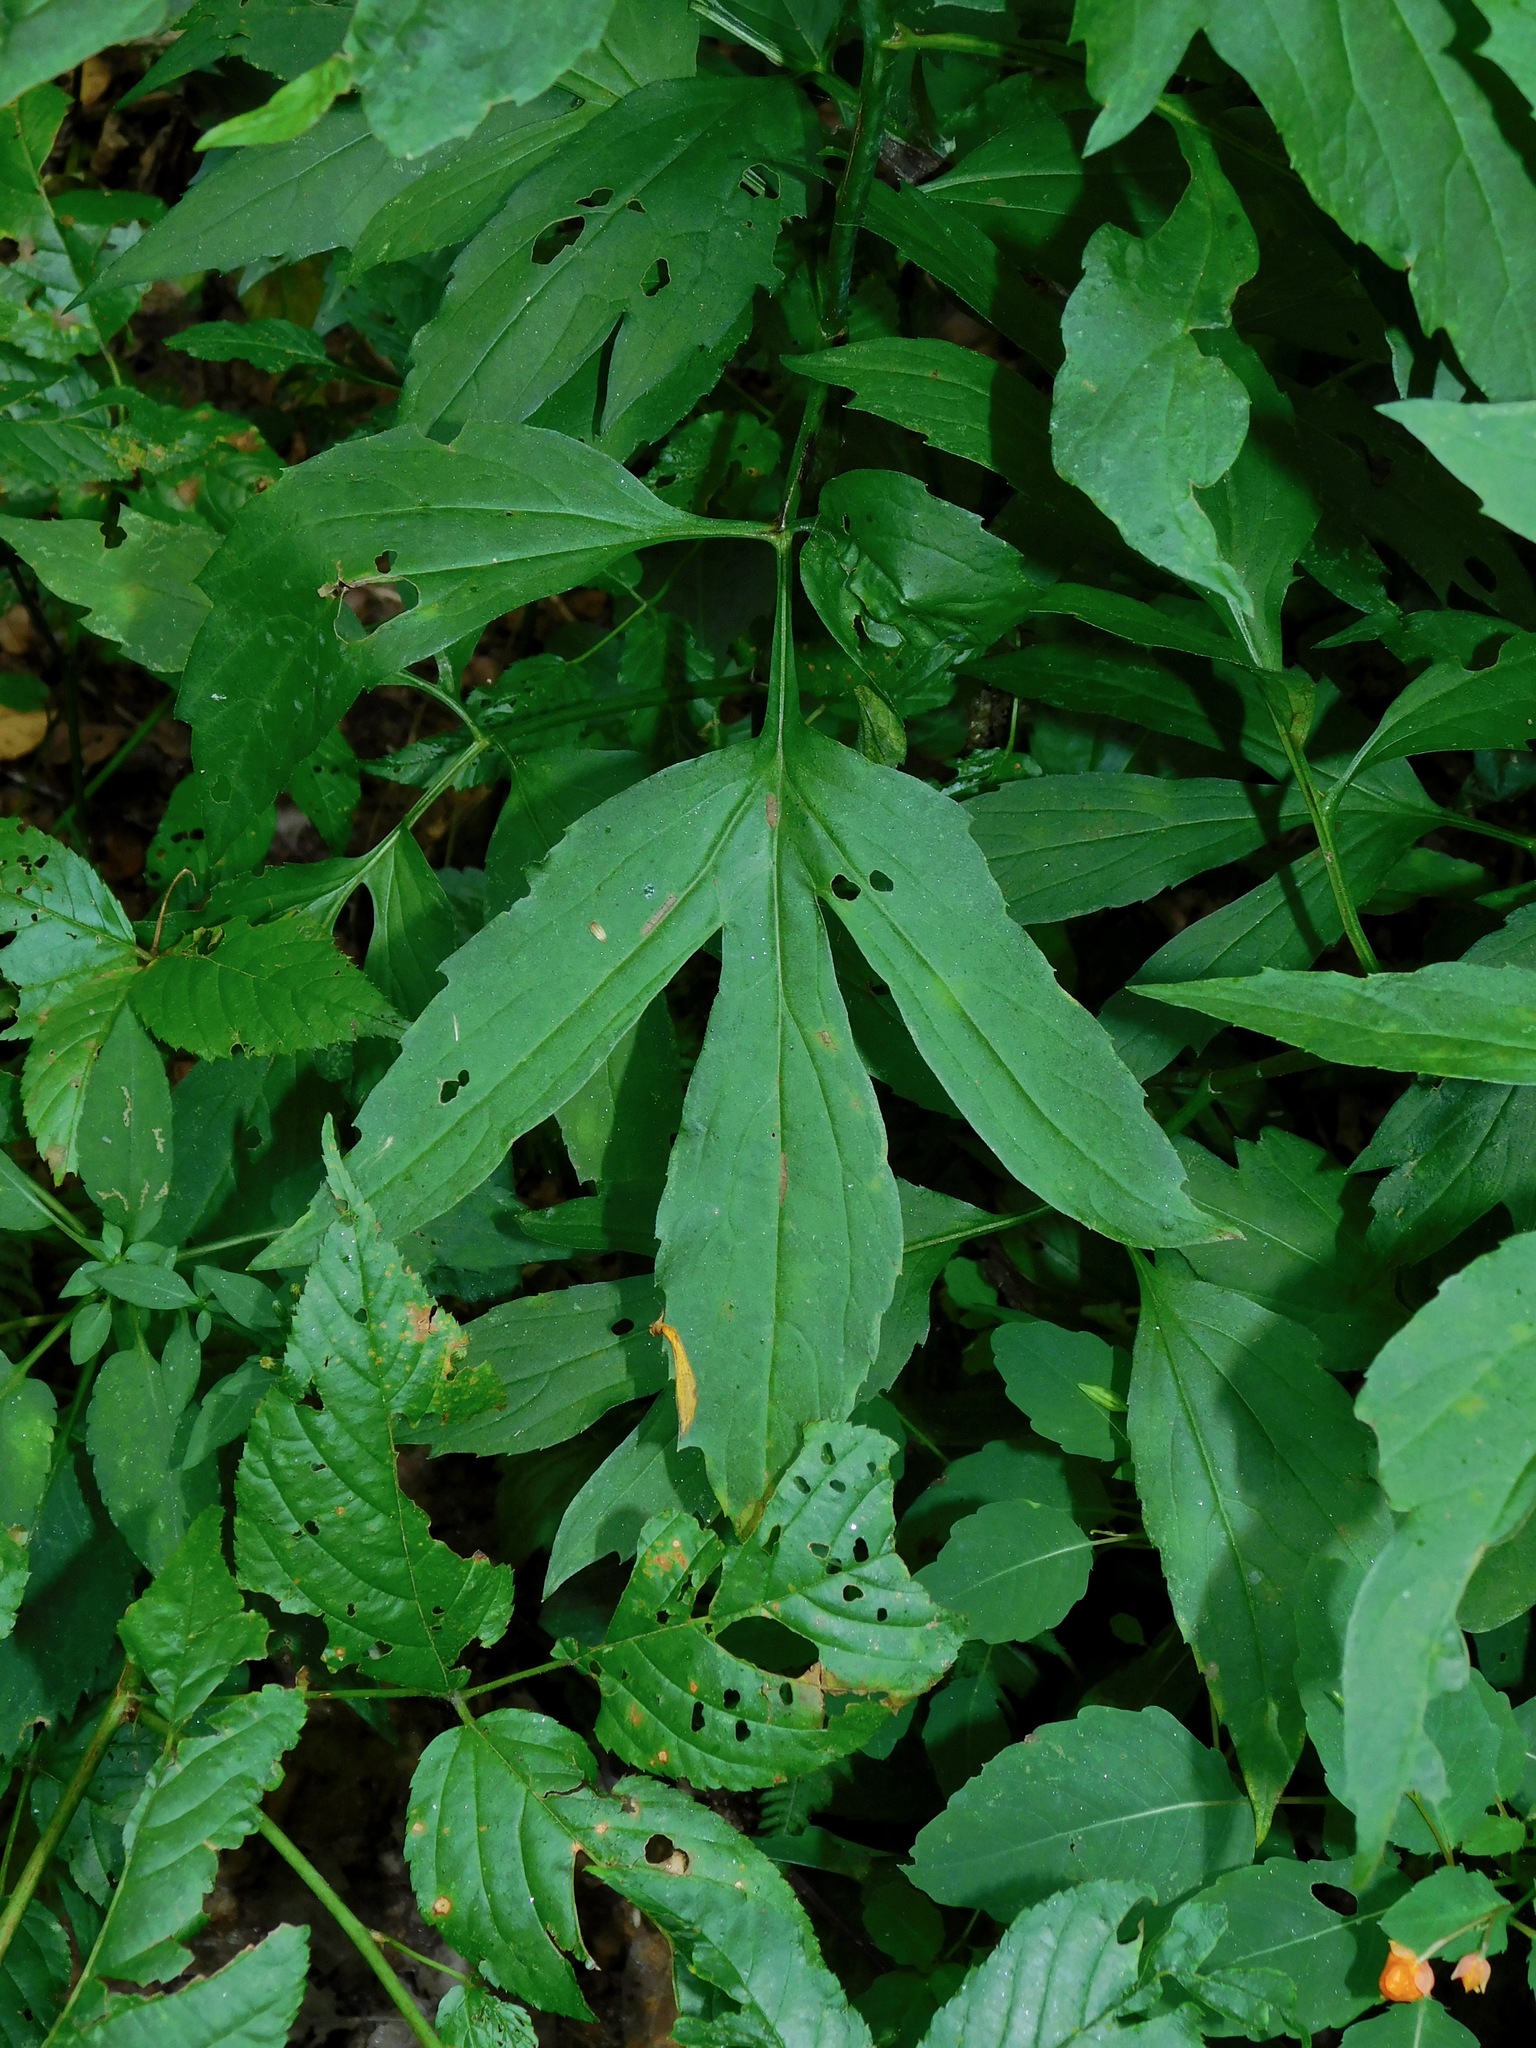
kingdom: Plantae
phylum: Tracheophyta
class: Magnoliopsida
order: Asterales
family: Asteraceae
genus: Rudbeckia
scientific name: Rudbeckia laciniata
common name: Coneflower
